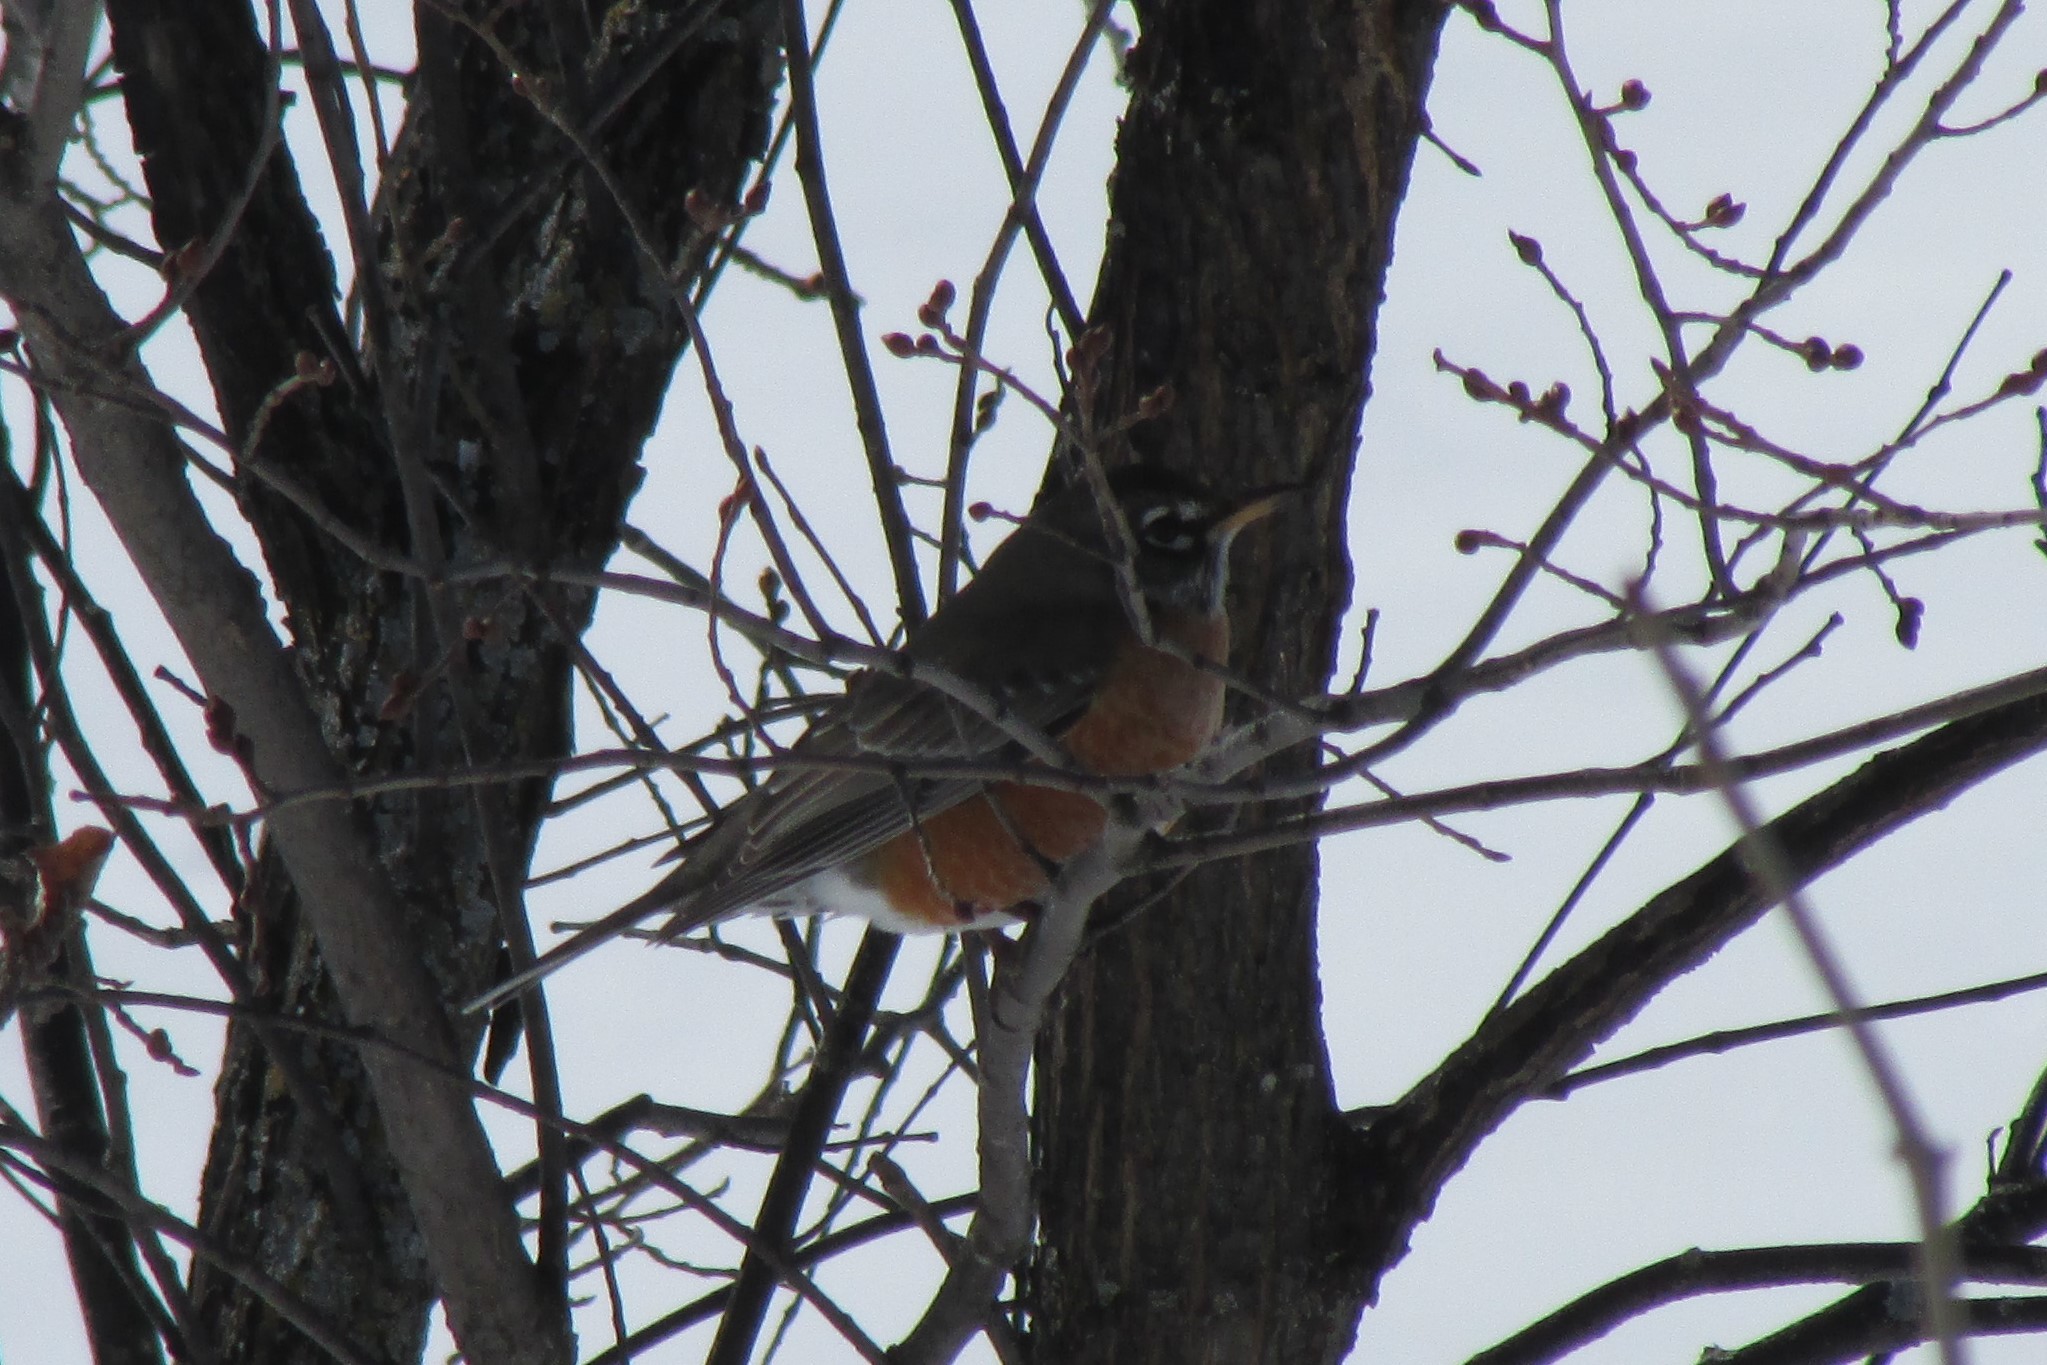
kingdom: Animalia
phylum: Chordata
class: Aves
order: Passeriformes
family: Turdidae
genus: Turdus
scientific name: Turdus migratorius
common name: American robin
